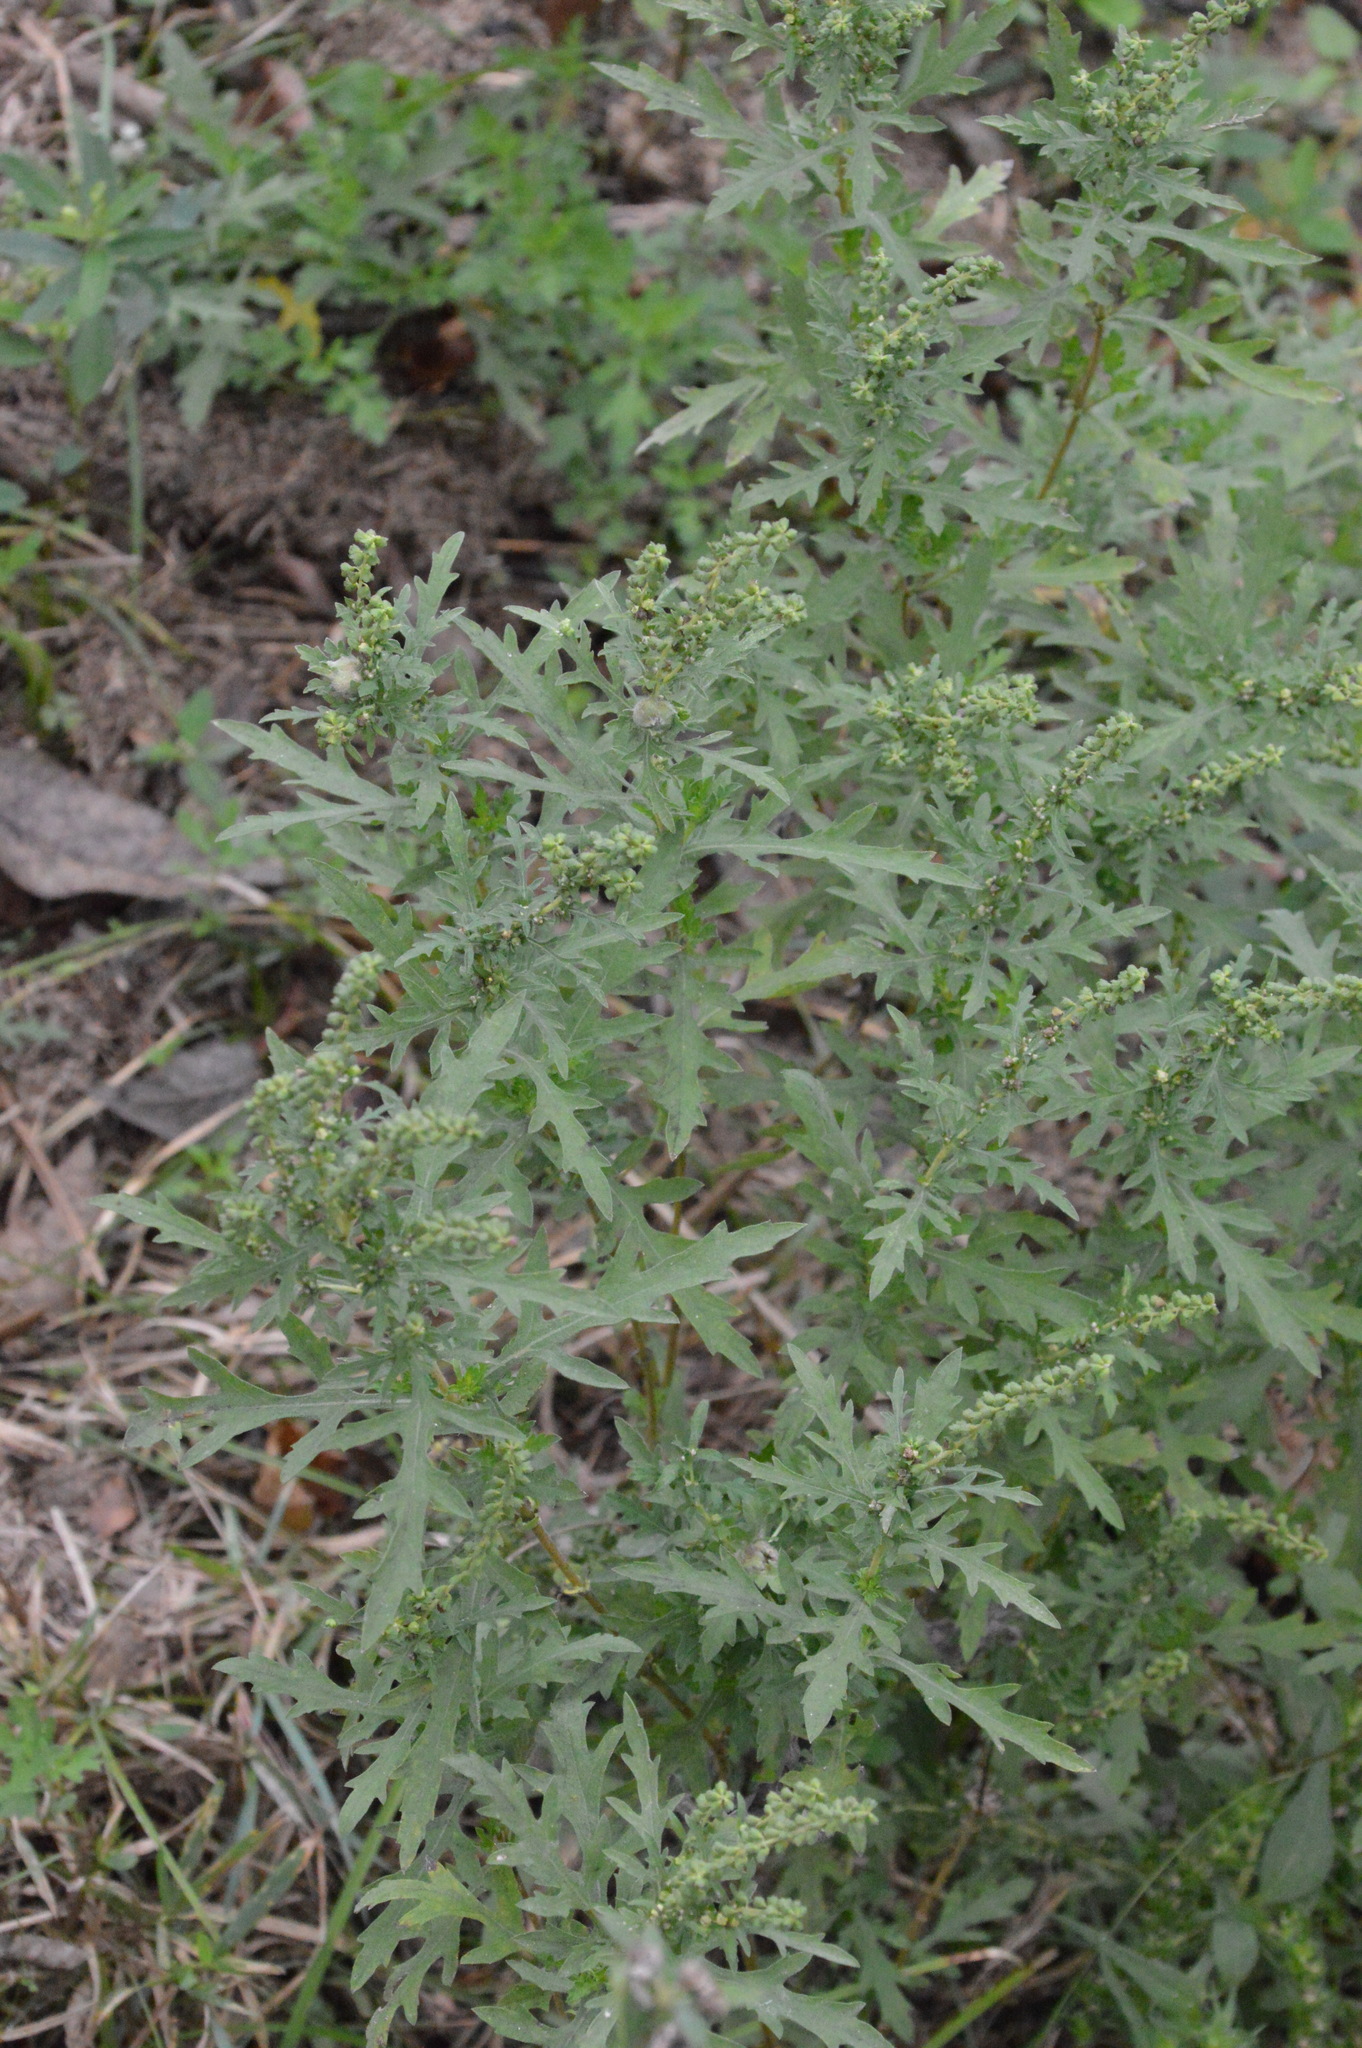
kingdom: Plantae
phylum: Tracheophyta
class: Magnoliopsida
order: Asterales
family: Asteraceae
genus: Ambrosia
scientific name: Ambrosia psilostachya
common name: Perennial ragweed
